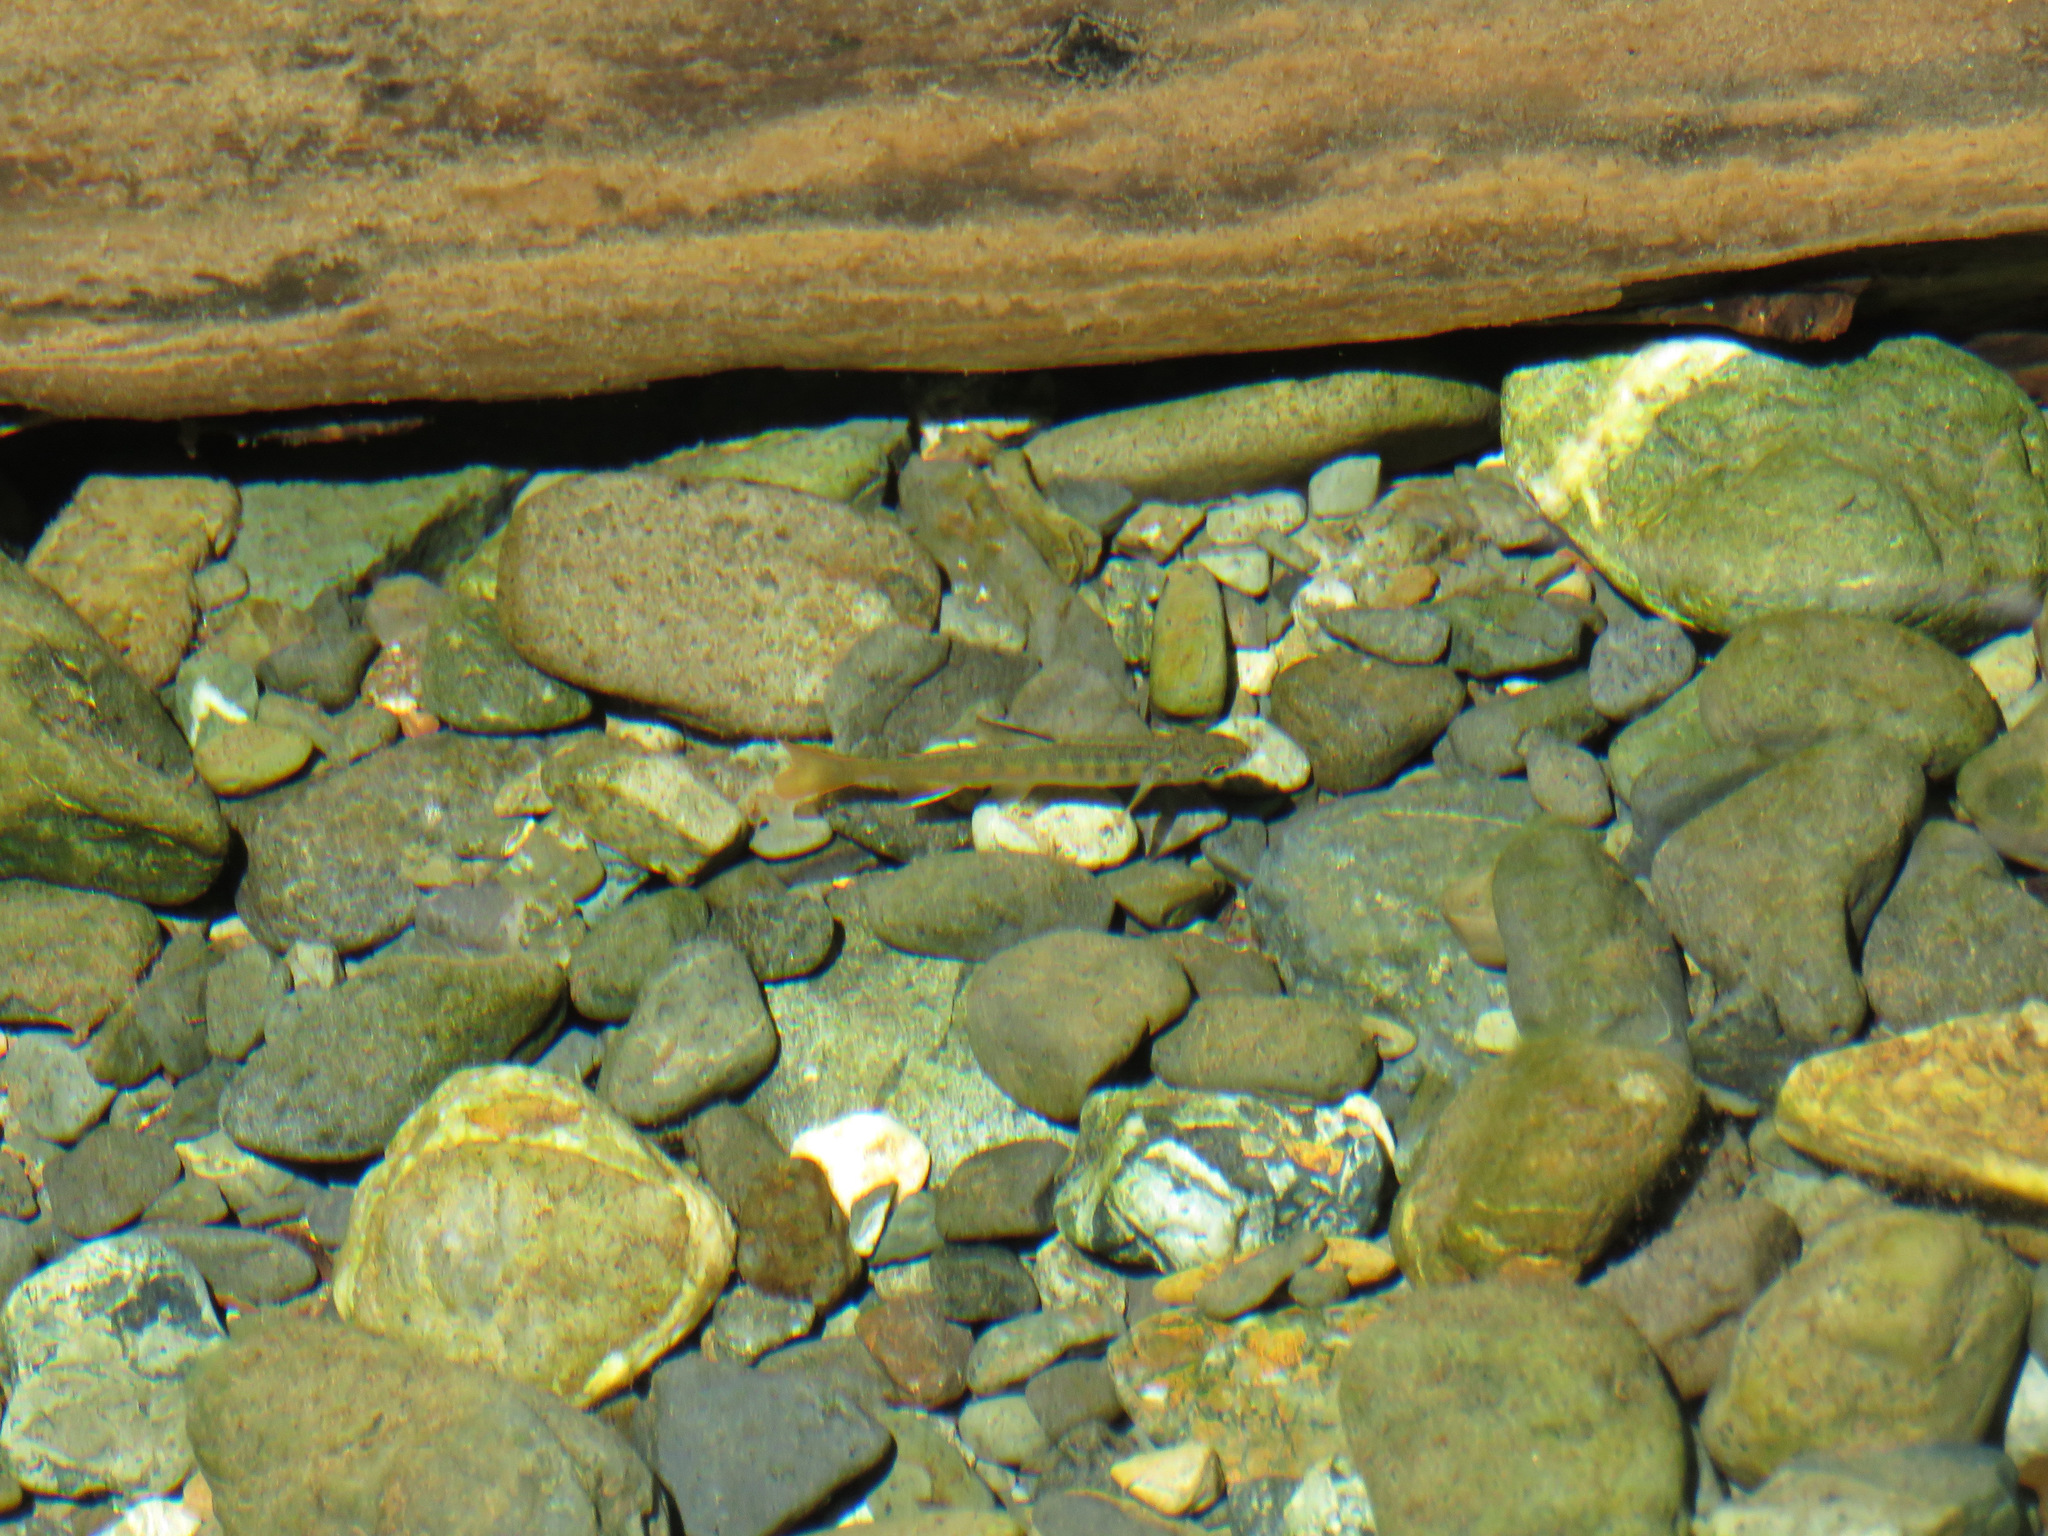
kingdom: Animalia
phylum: Chordata
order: Salmoniformes
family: Salmonidae
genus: Oncorhynchus
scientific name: Oncorhynchus kisutch
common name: Coho salmon
